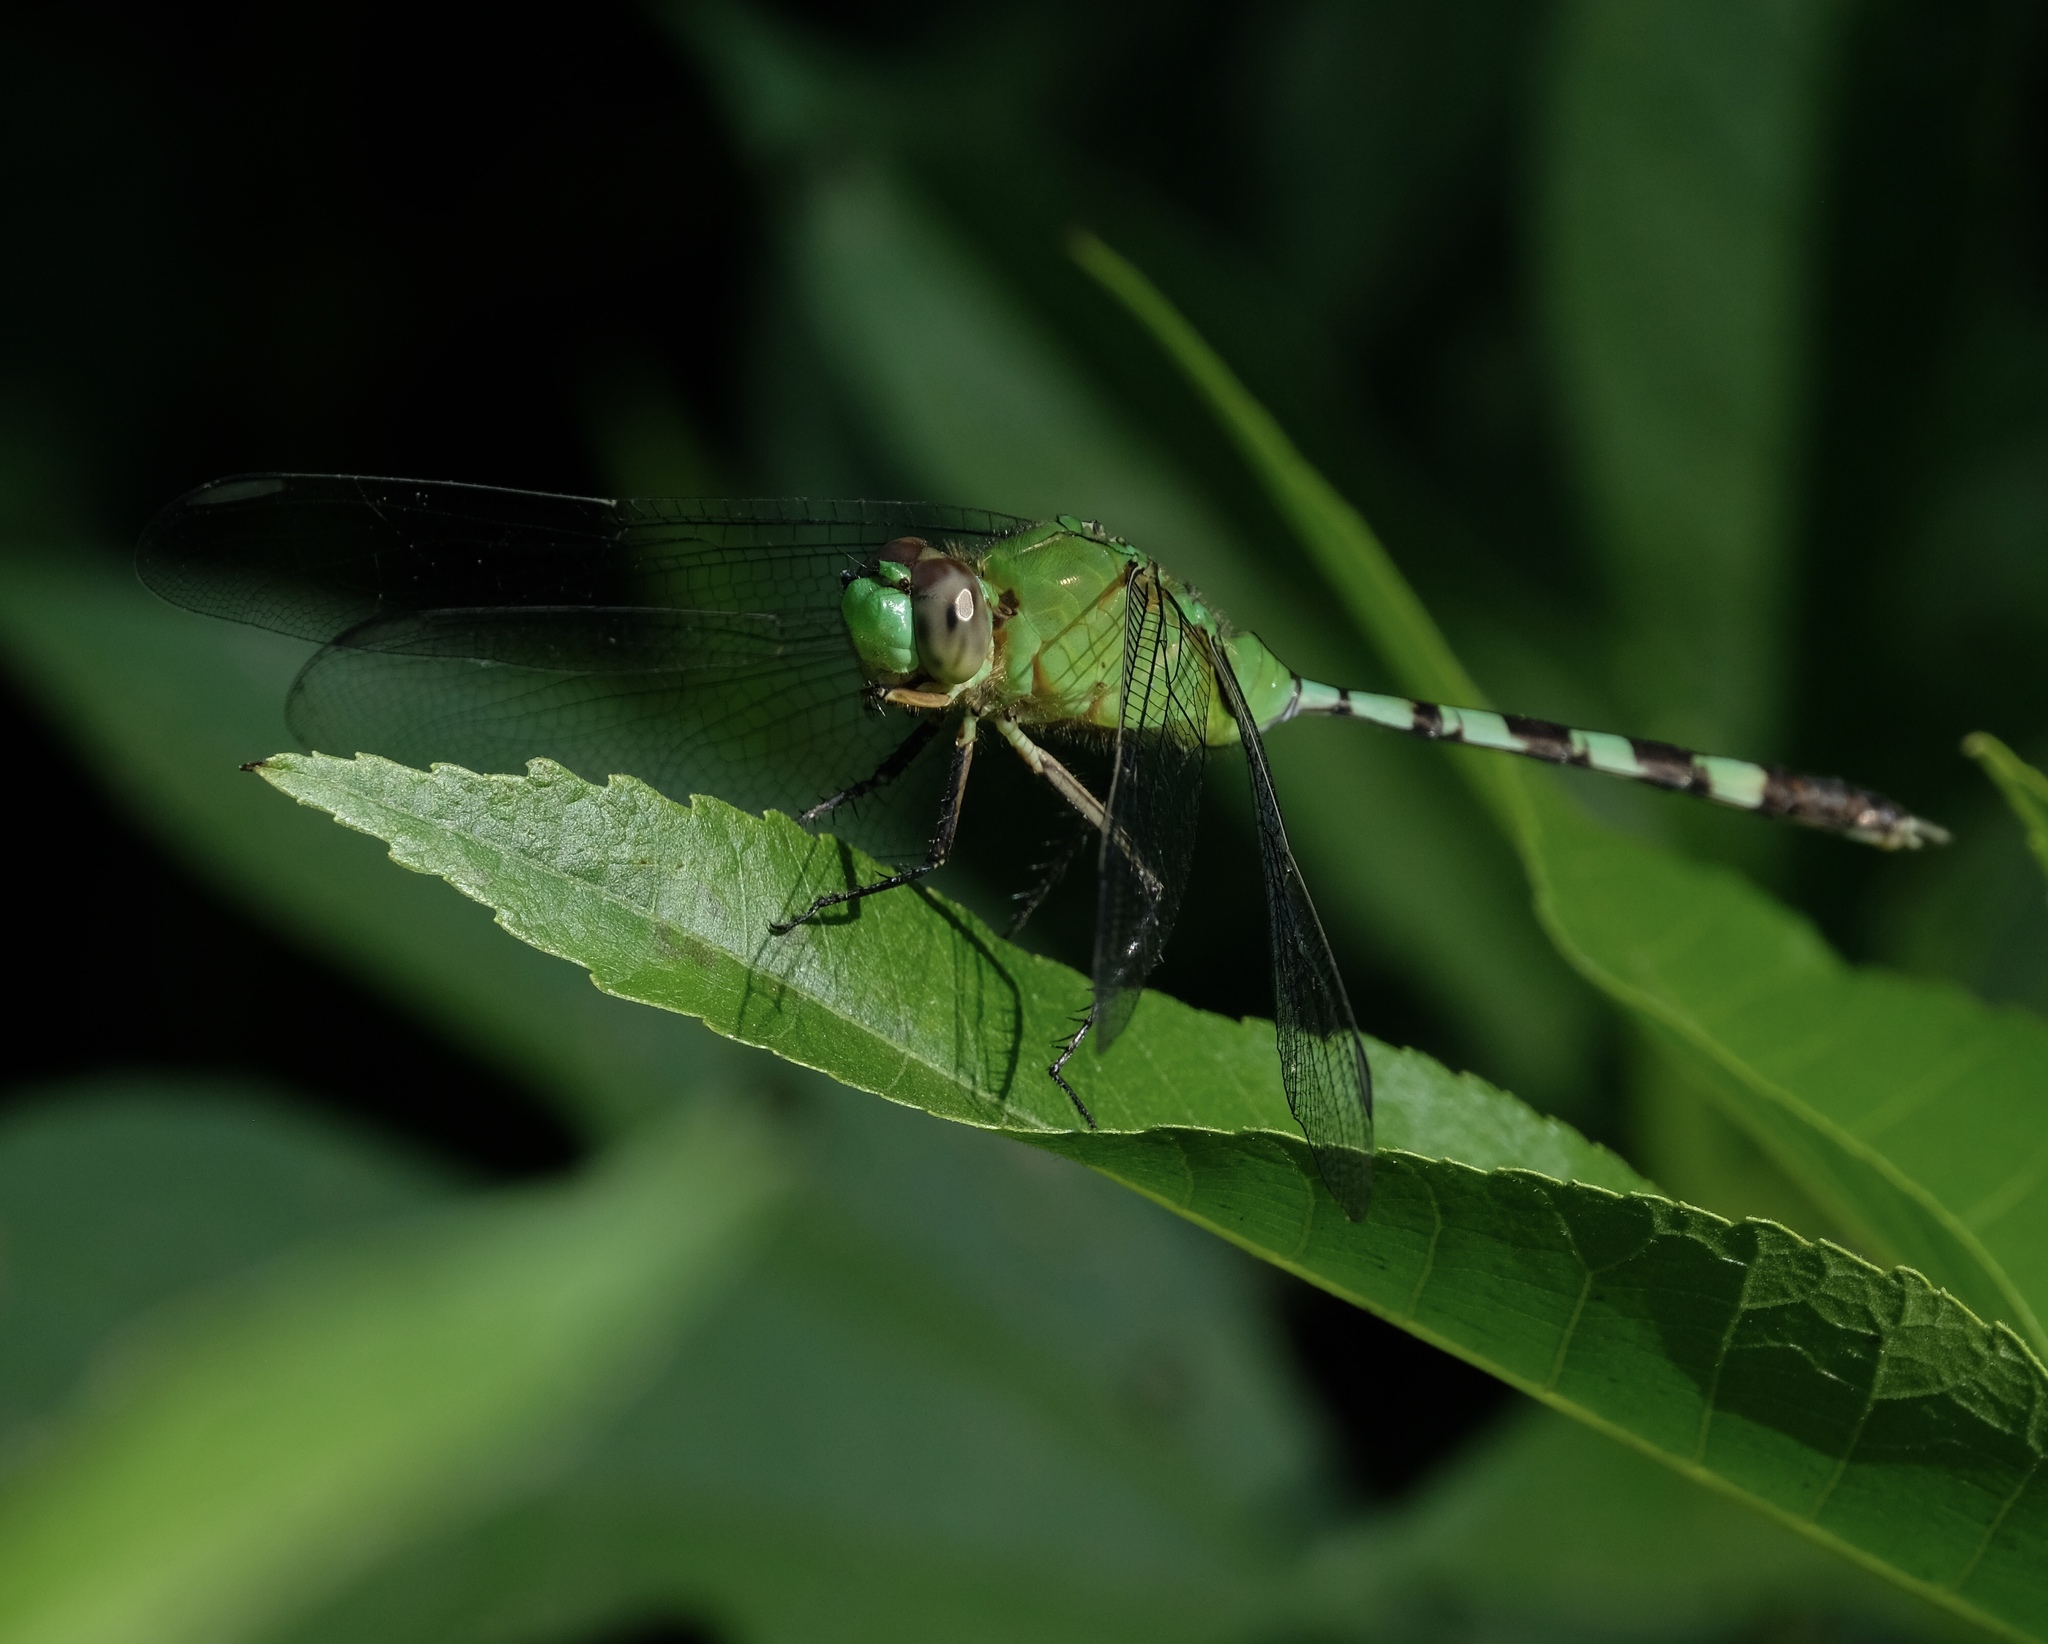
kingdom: Animalia
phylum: Arthropoda
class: Insecta
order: Odonata
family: Libellulidae
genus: Erythemis
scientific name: Erythemis vesiculosa
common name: Great pondhawk
